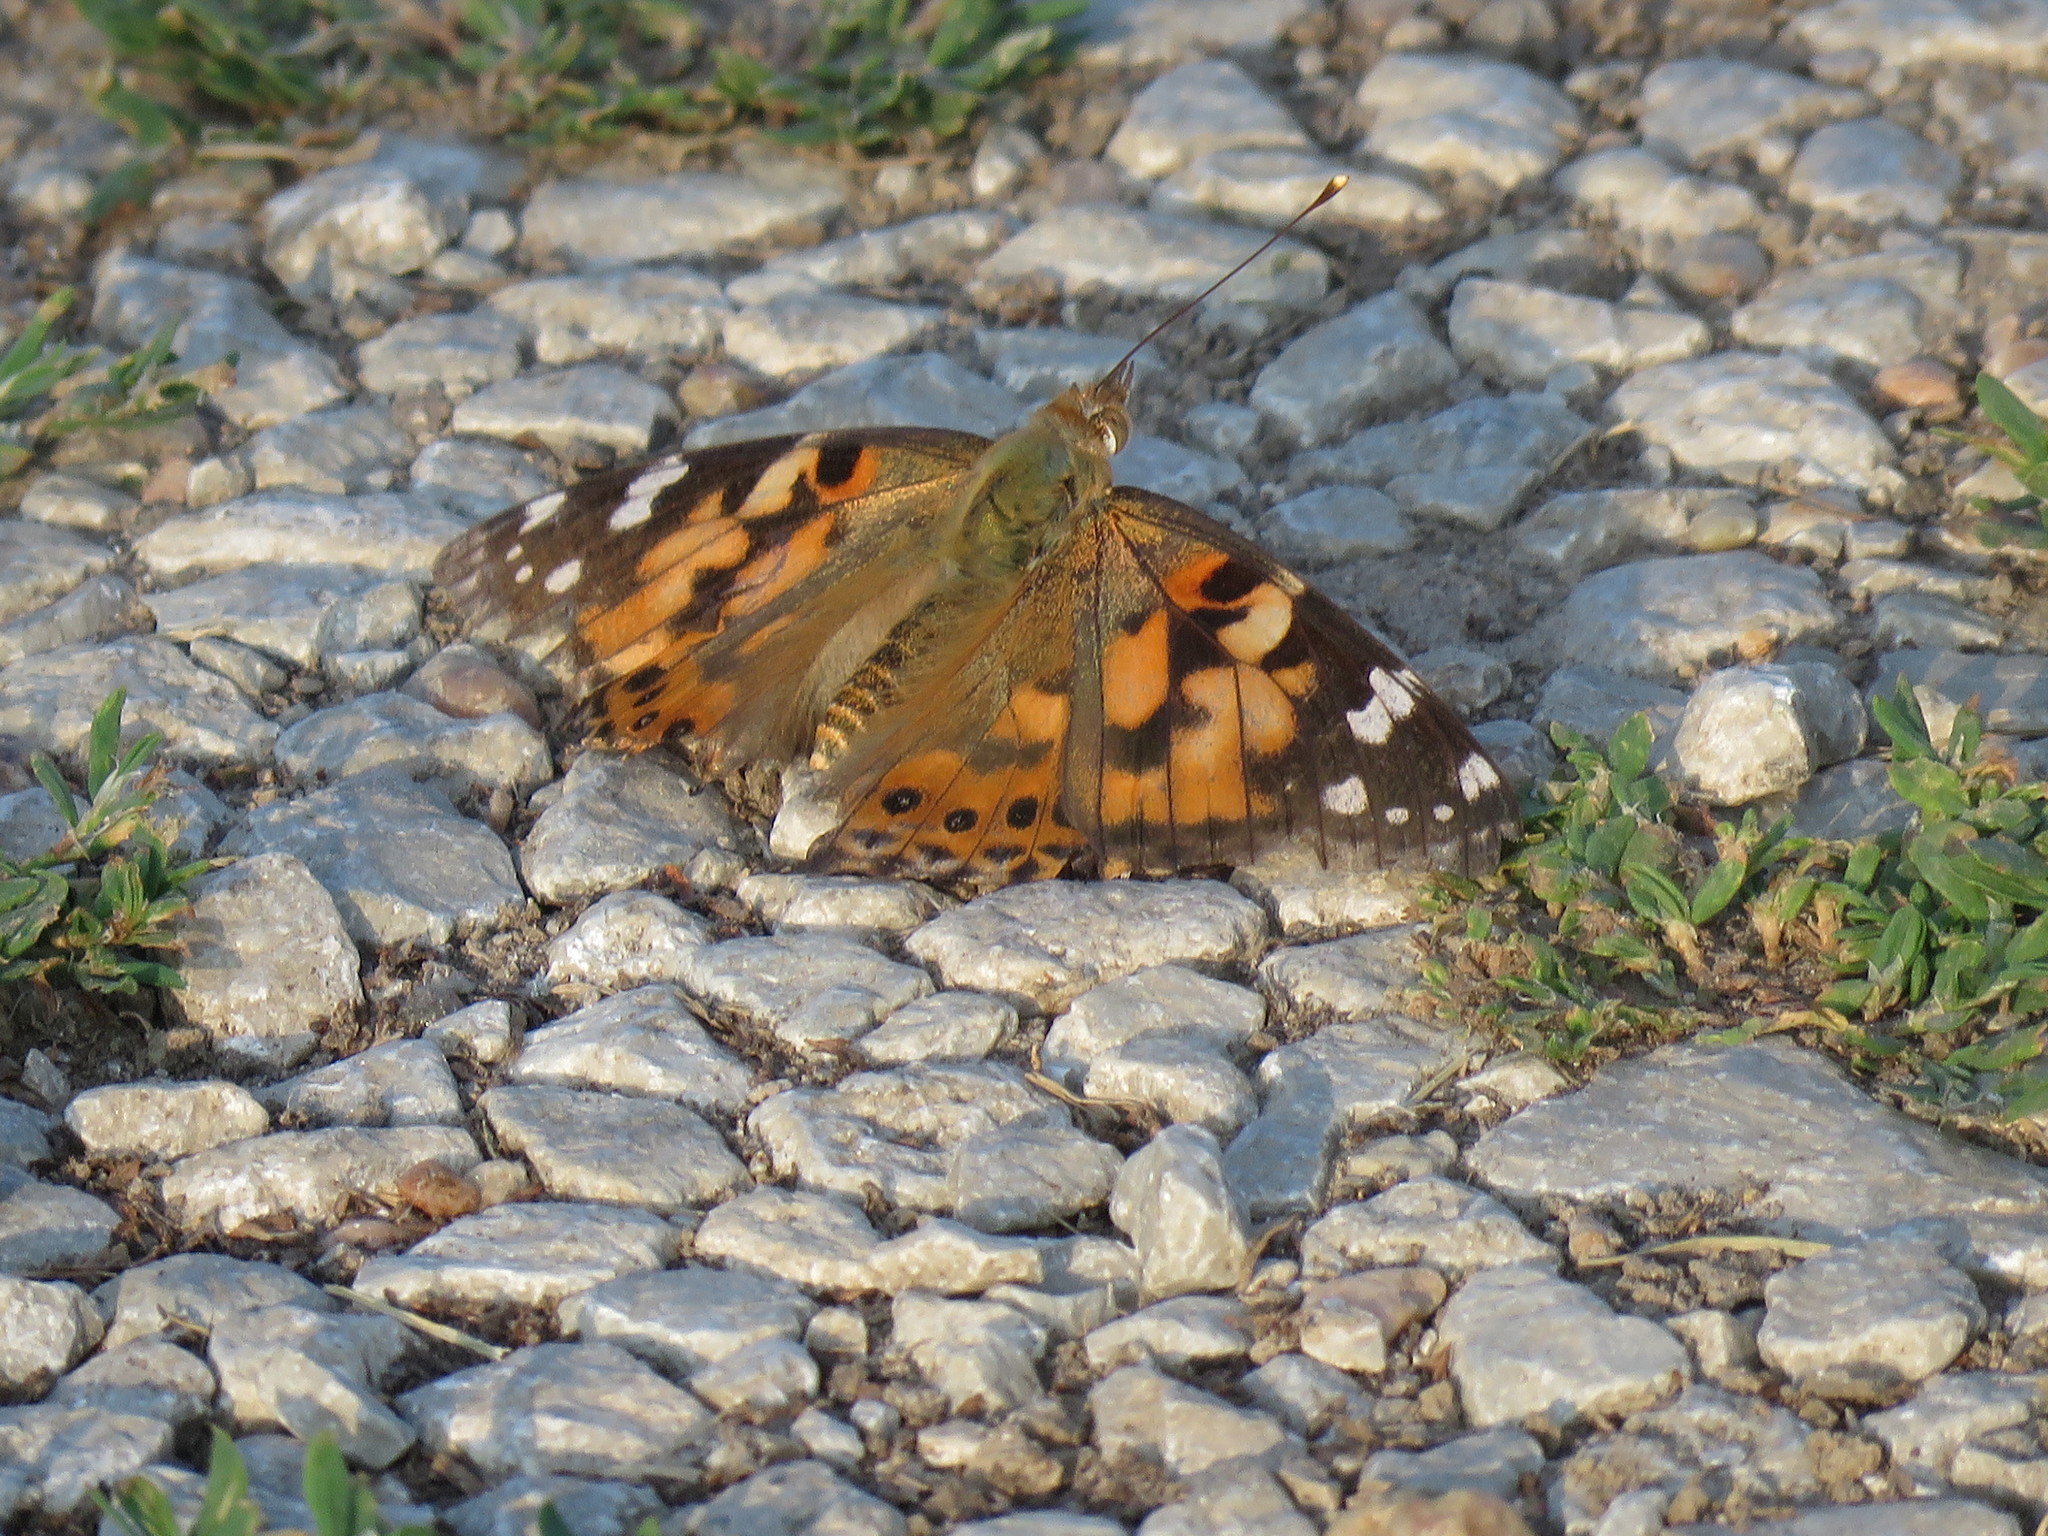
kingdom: Animalia
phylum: Arthropoda
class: Insecta
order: Lepidoptera
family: Nymphalidae
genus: Vanessa
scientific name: Vanessa cardui
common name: Painted lady
